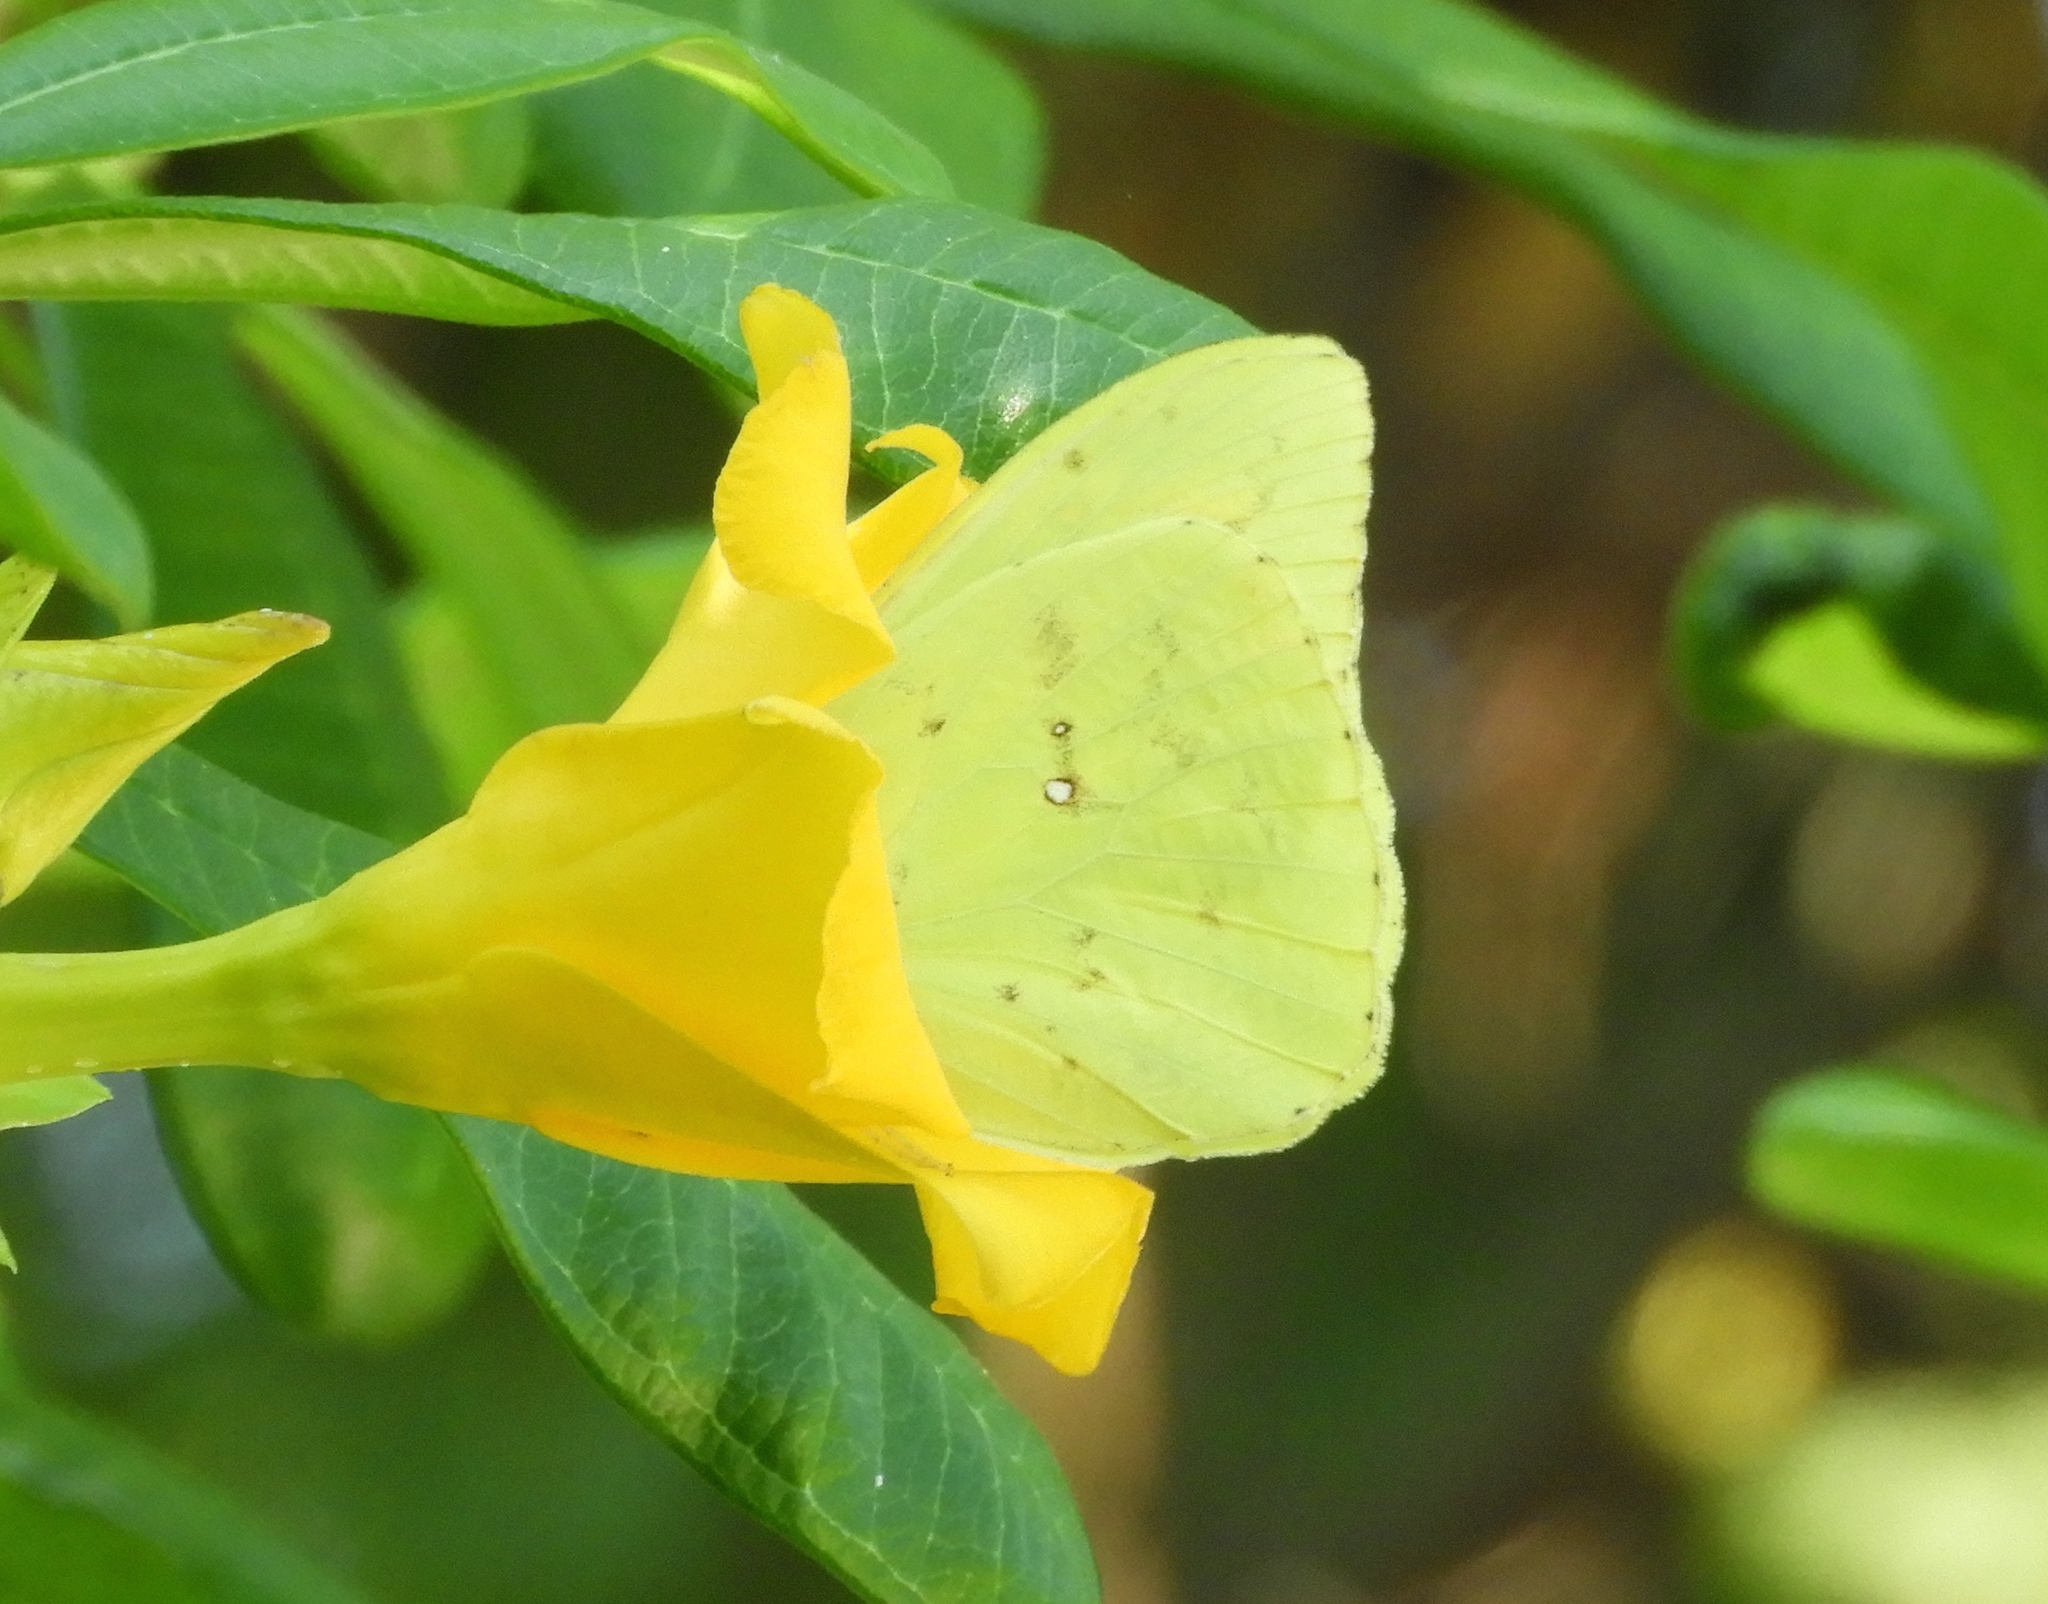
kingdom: Animalia
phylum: Arthropoda
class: Insecta
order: Lepidoptera
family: Pieridae
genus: Phoebis
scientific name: Phoebis sennae
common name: Cloudless sulphur
